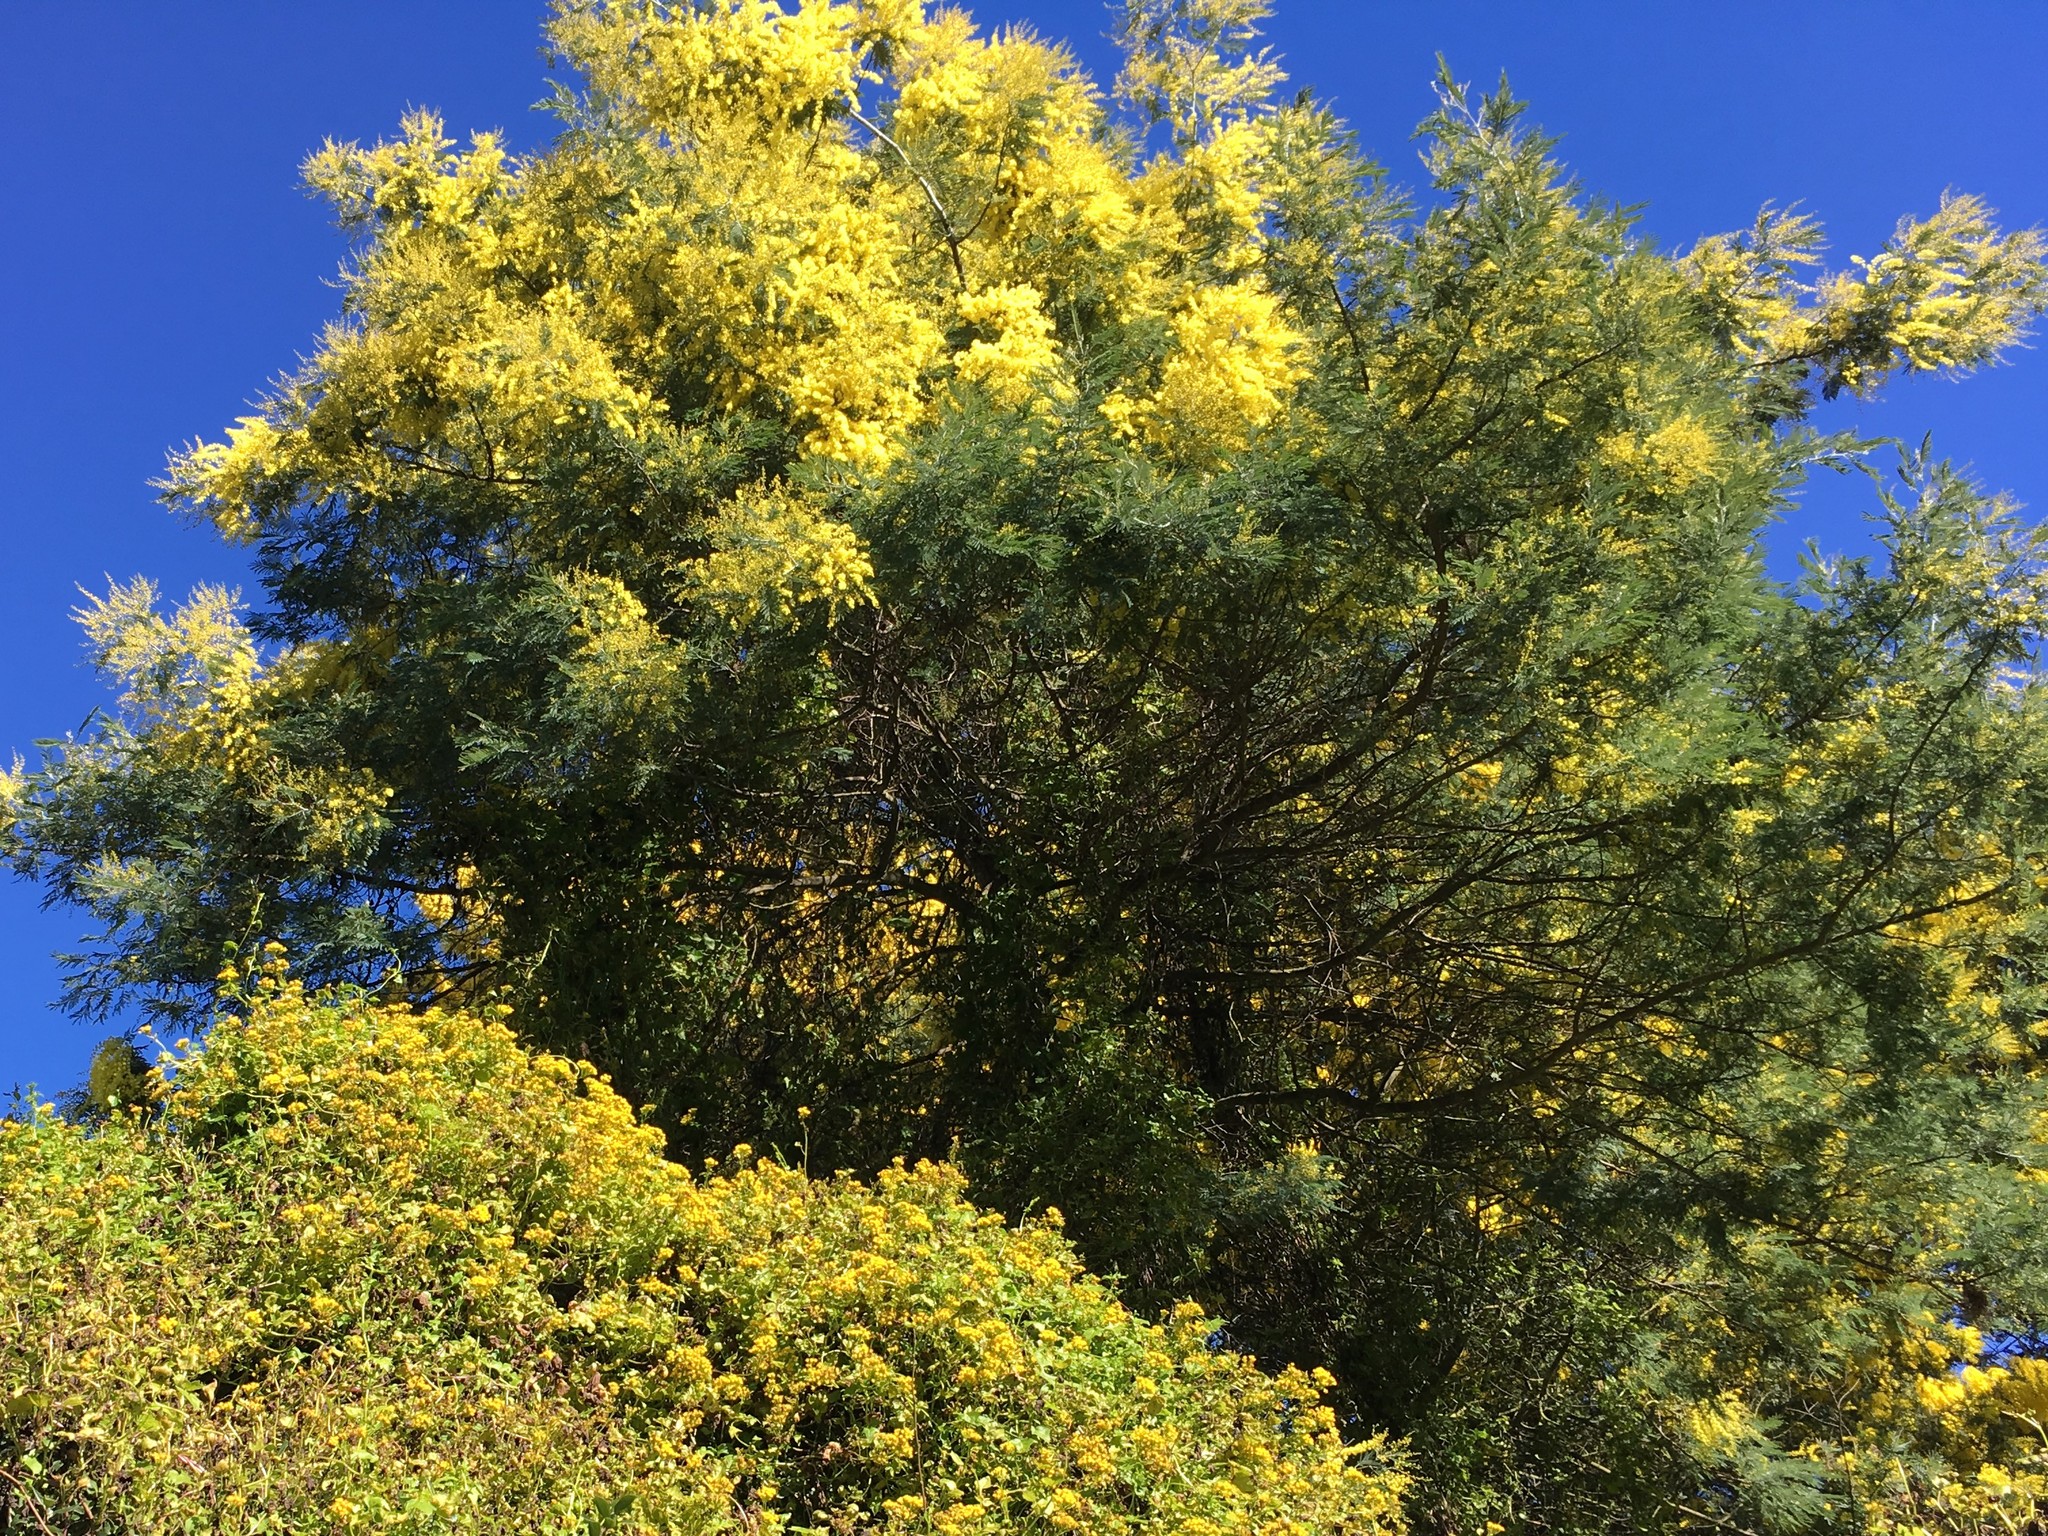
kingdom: Plantae
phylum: Tracheophyta
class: Magnoliopsida
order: Fabales
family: Fabaceae
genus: Acacia
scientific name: Acacia dealbata
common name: Silver wattle
